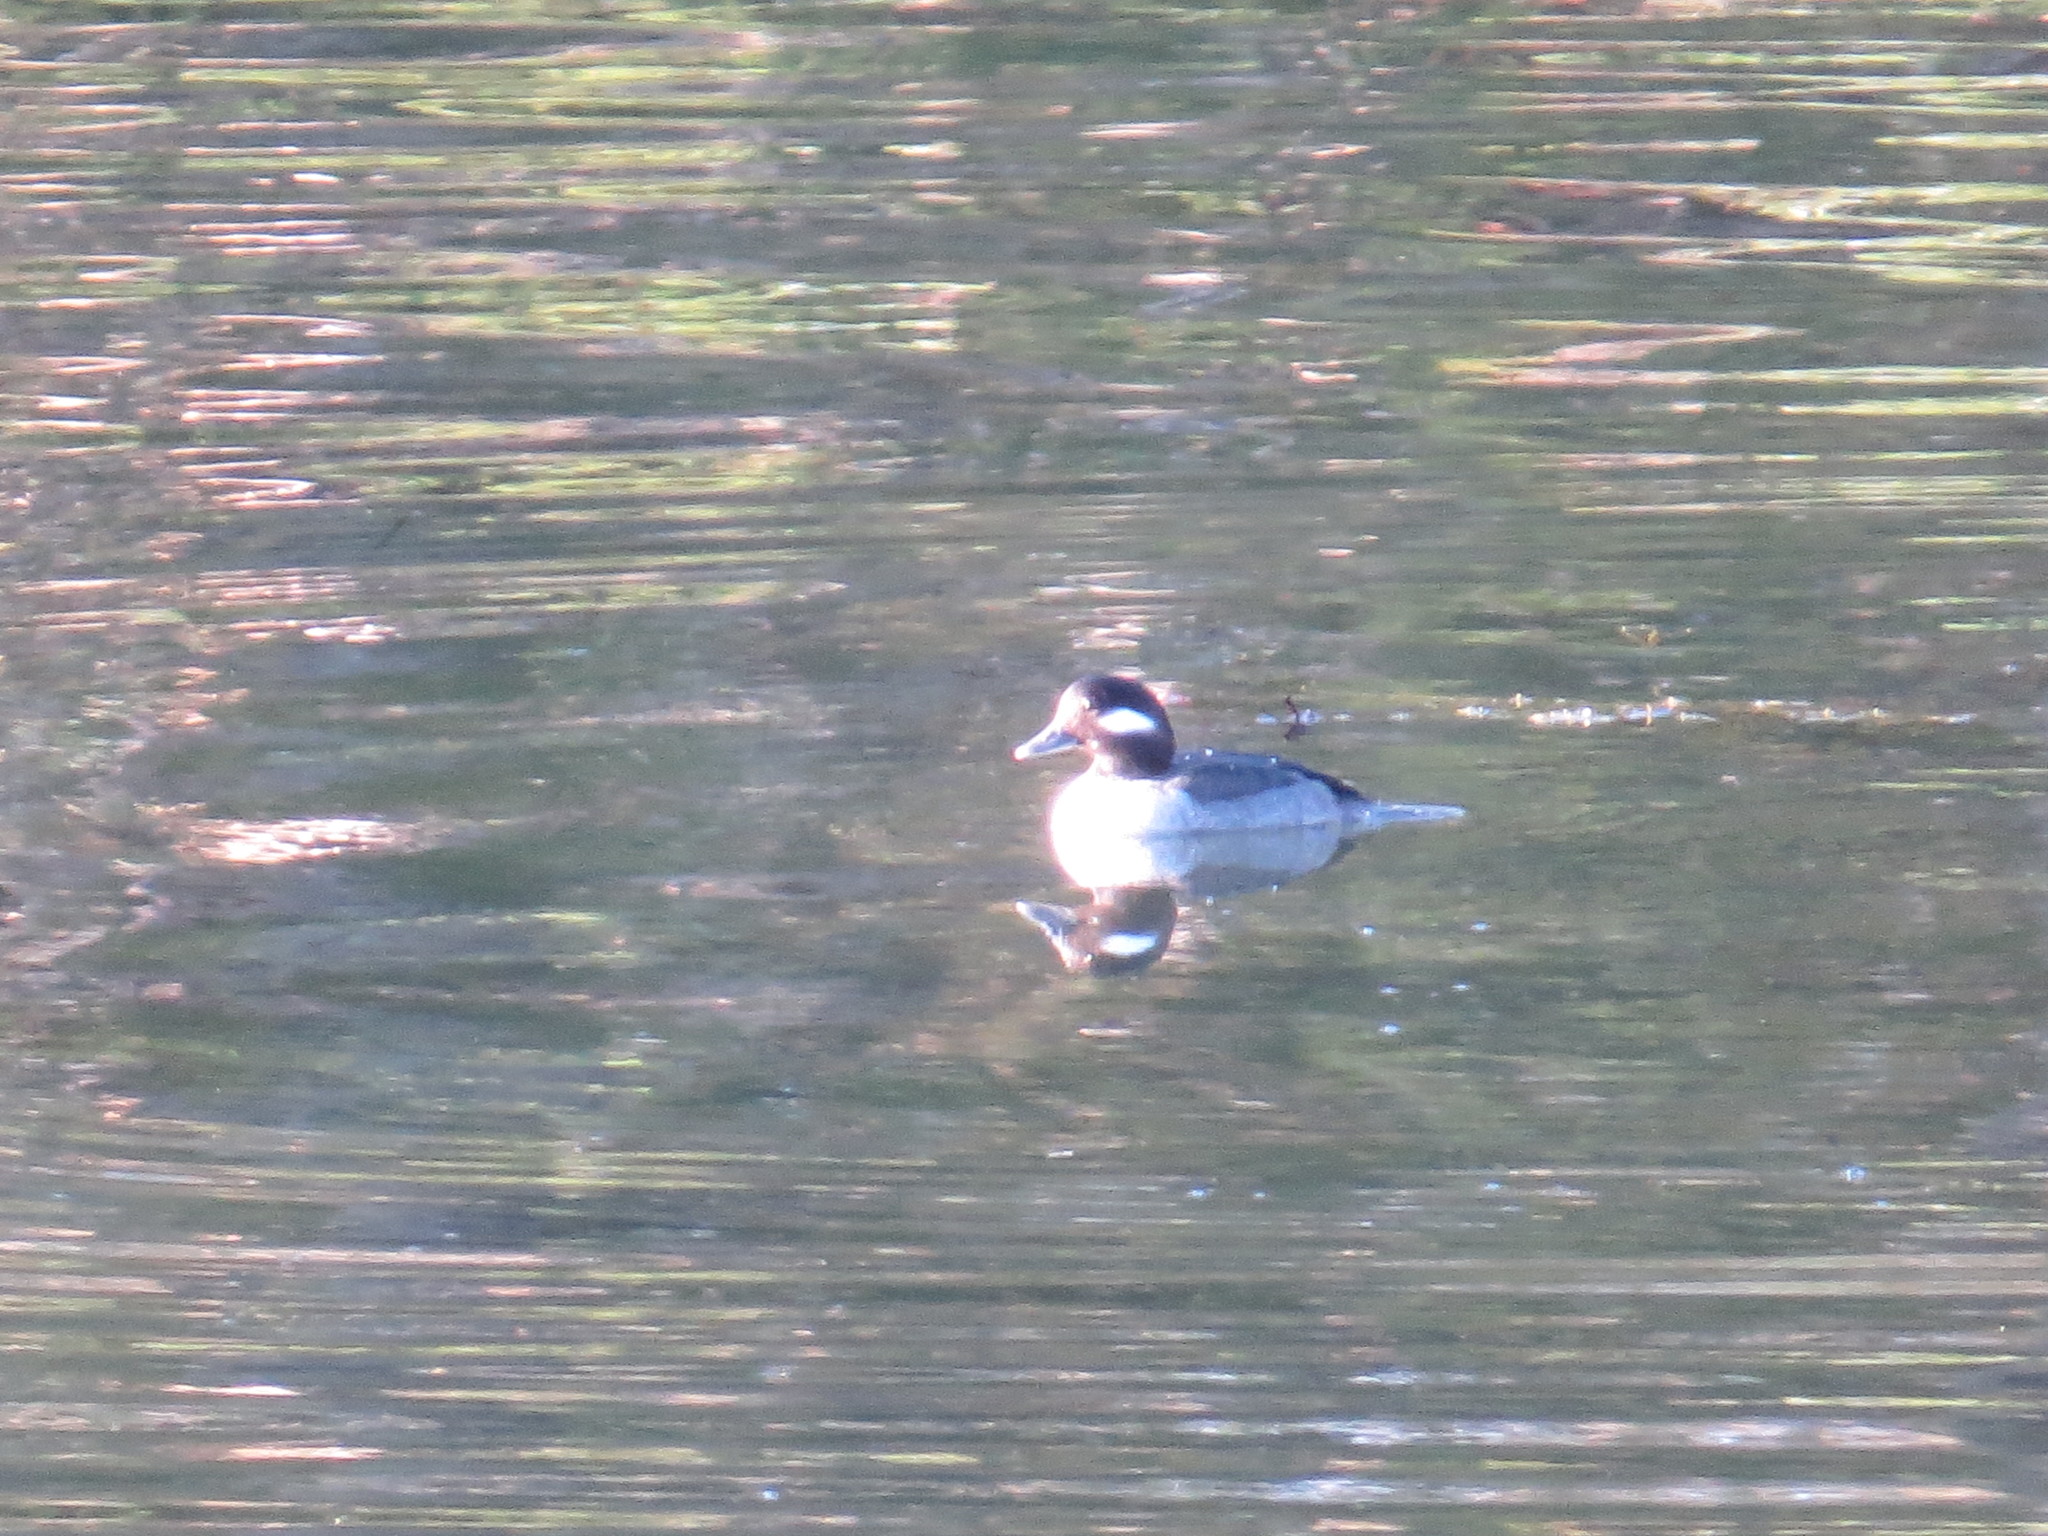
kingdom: Animalia
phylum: Chordata
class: Aves
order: Anseriformes
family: Anatidae
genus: Bucephala
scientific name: Bucephala albeola
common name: Bufflehead
